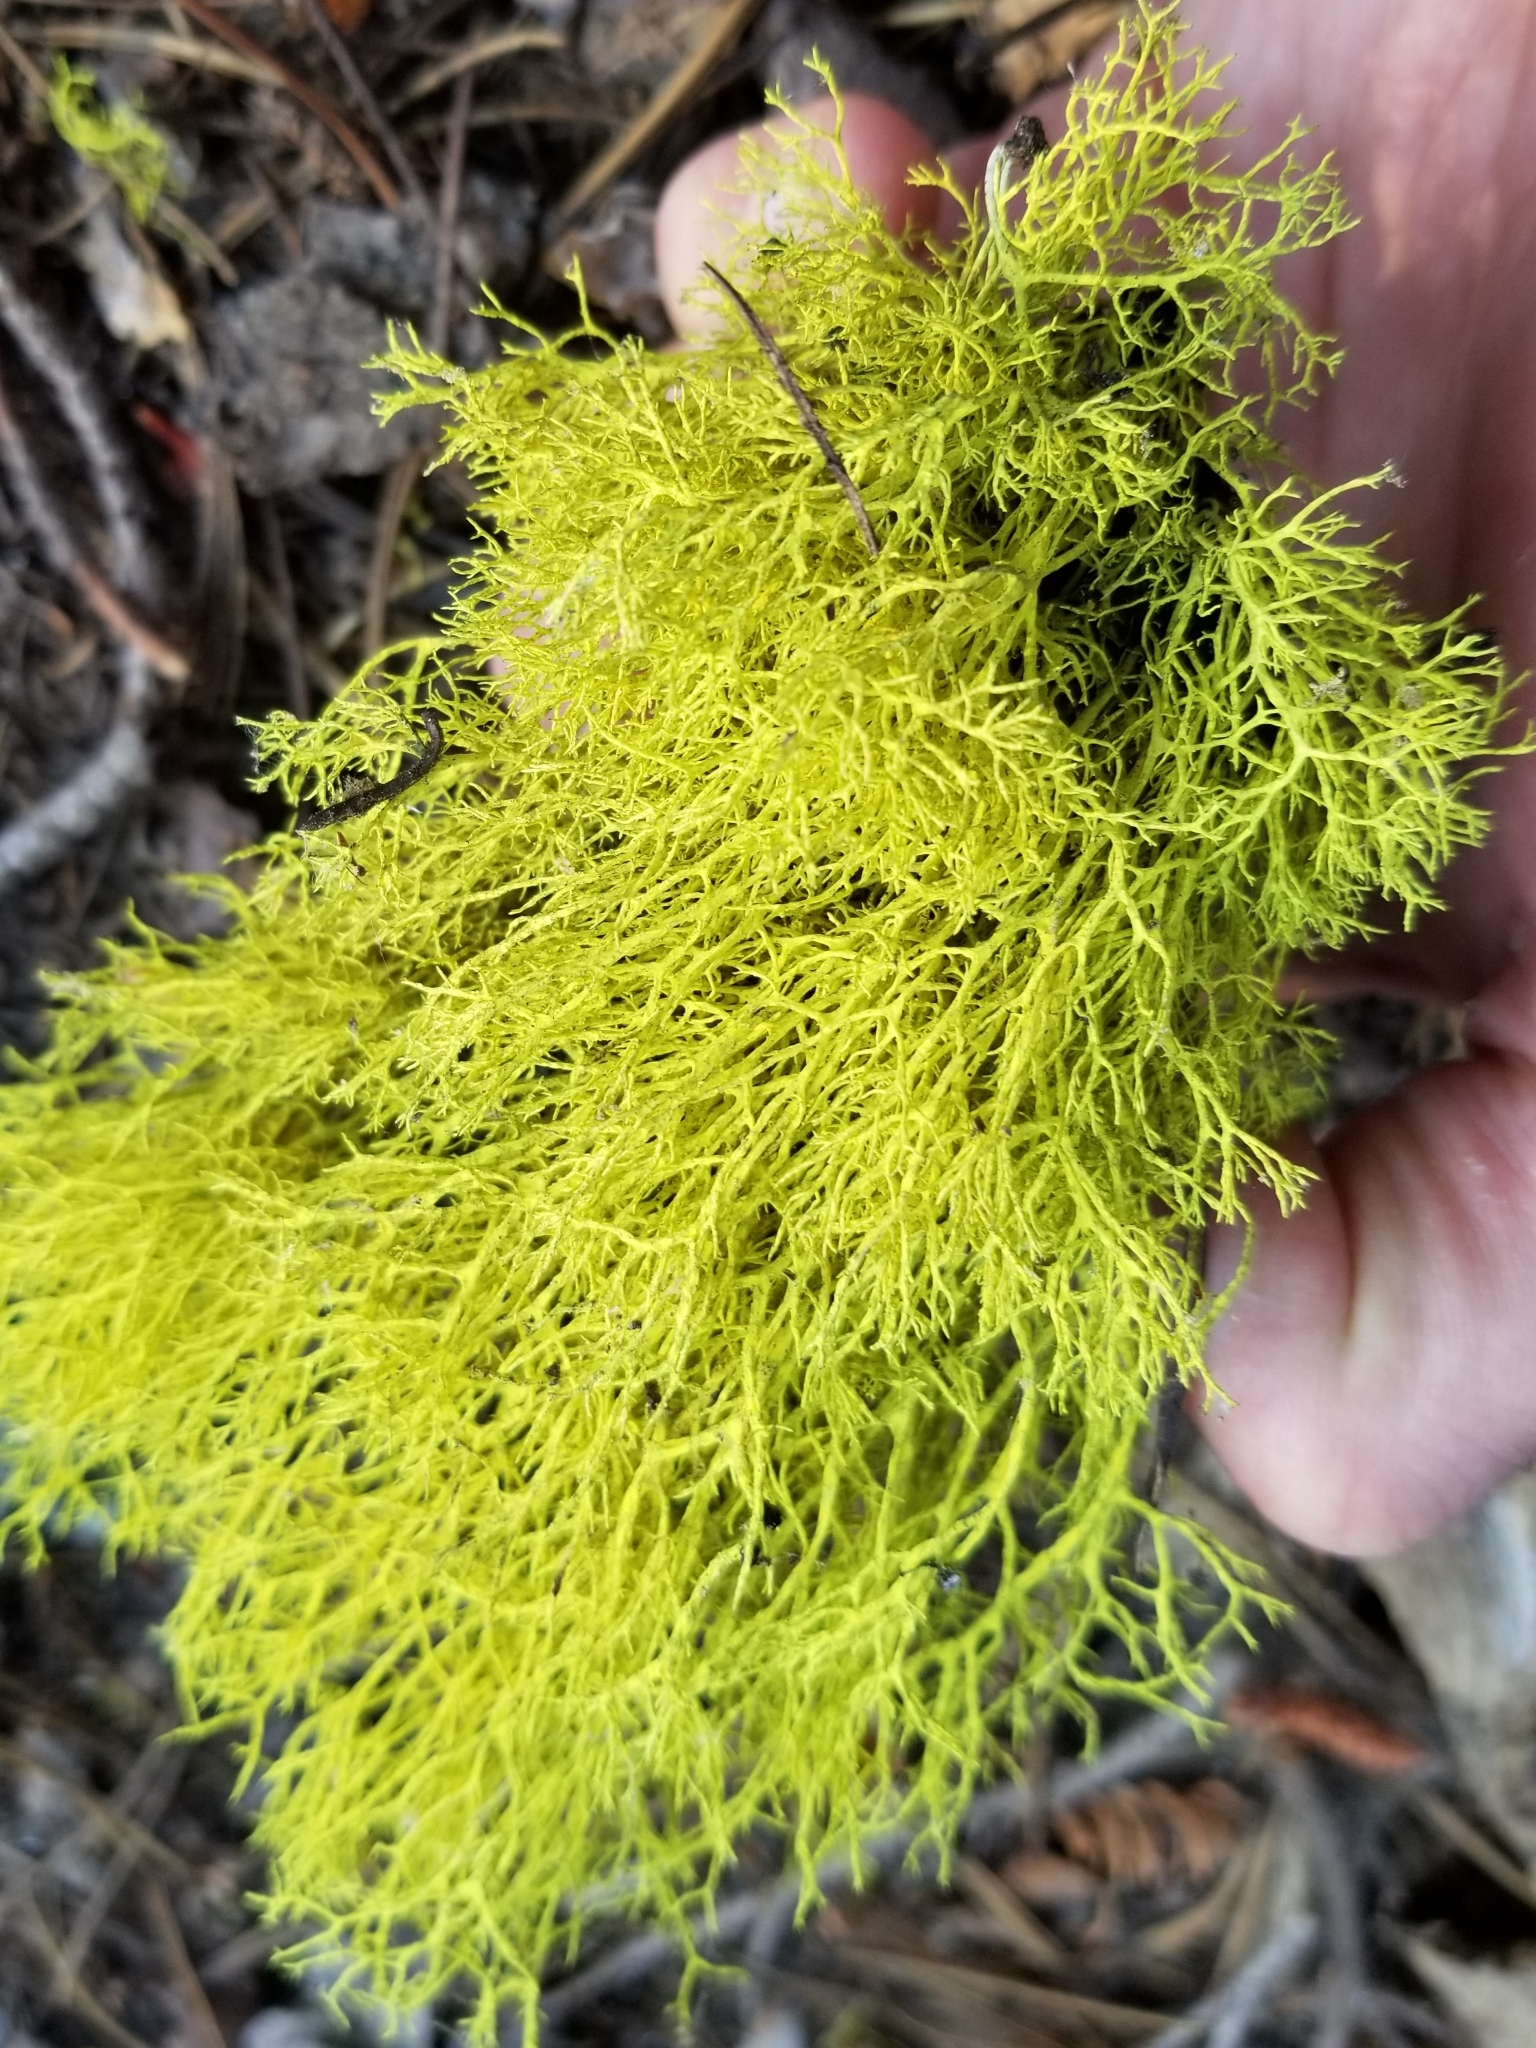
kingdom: Fungi
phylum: Ascomycota
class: Lecanoromycetes
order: Lecanorales
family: Parmeliaceae
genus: Letharia
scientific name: Letharia
